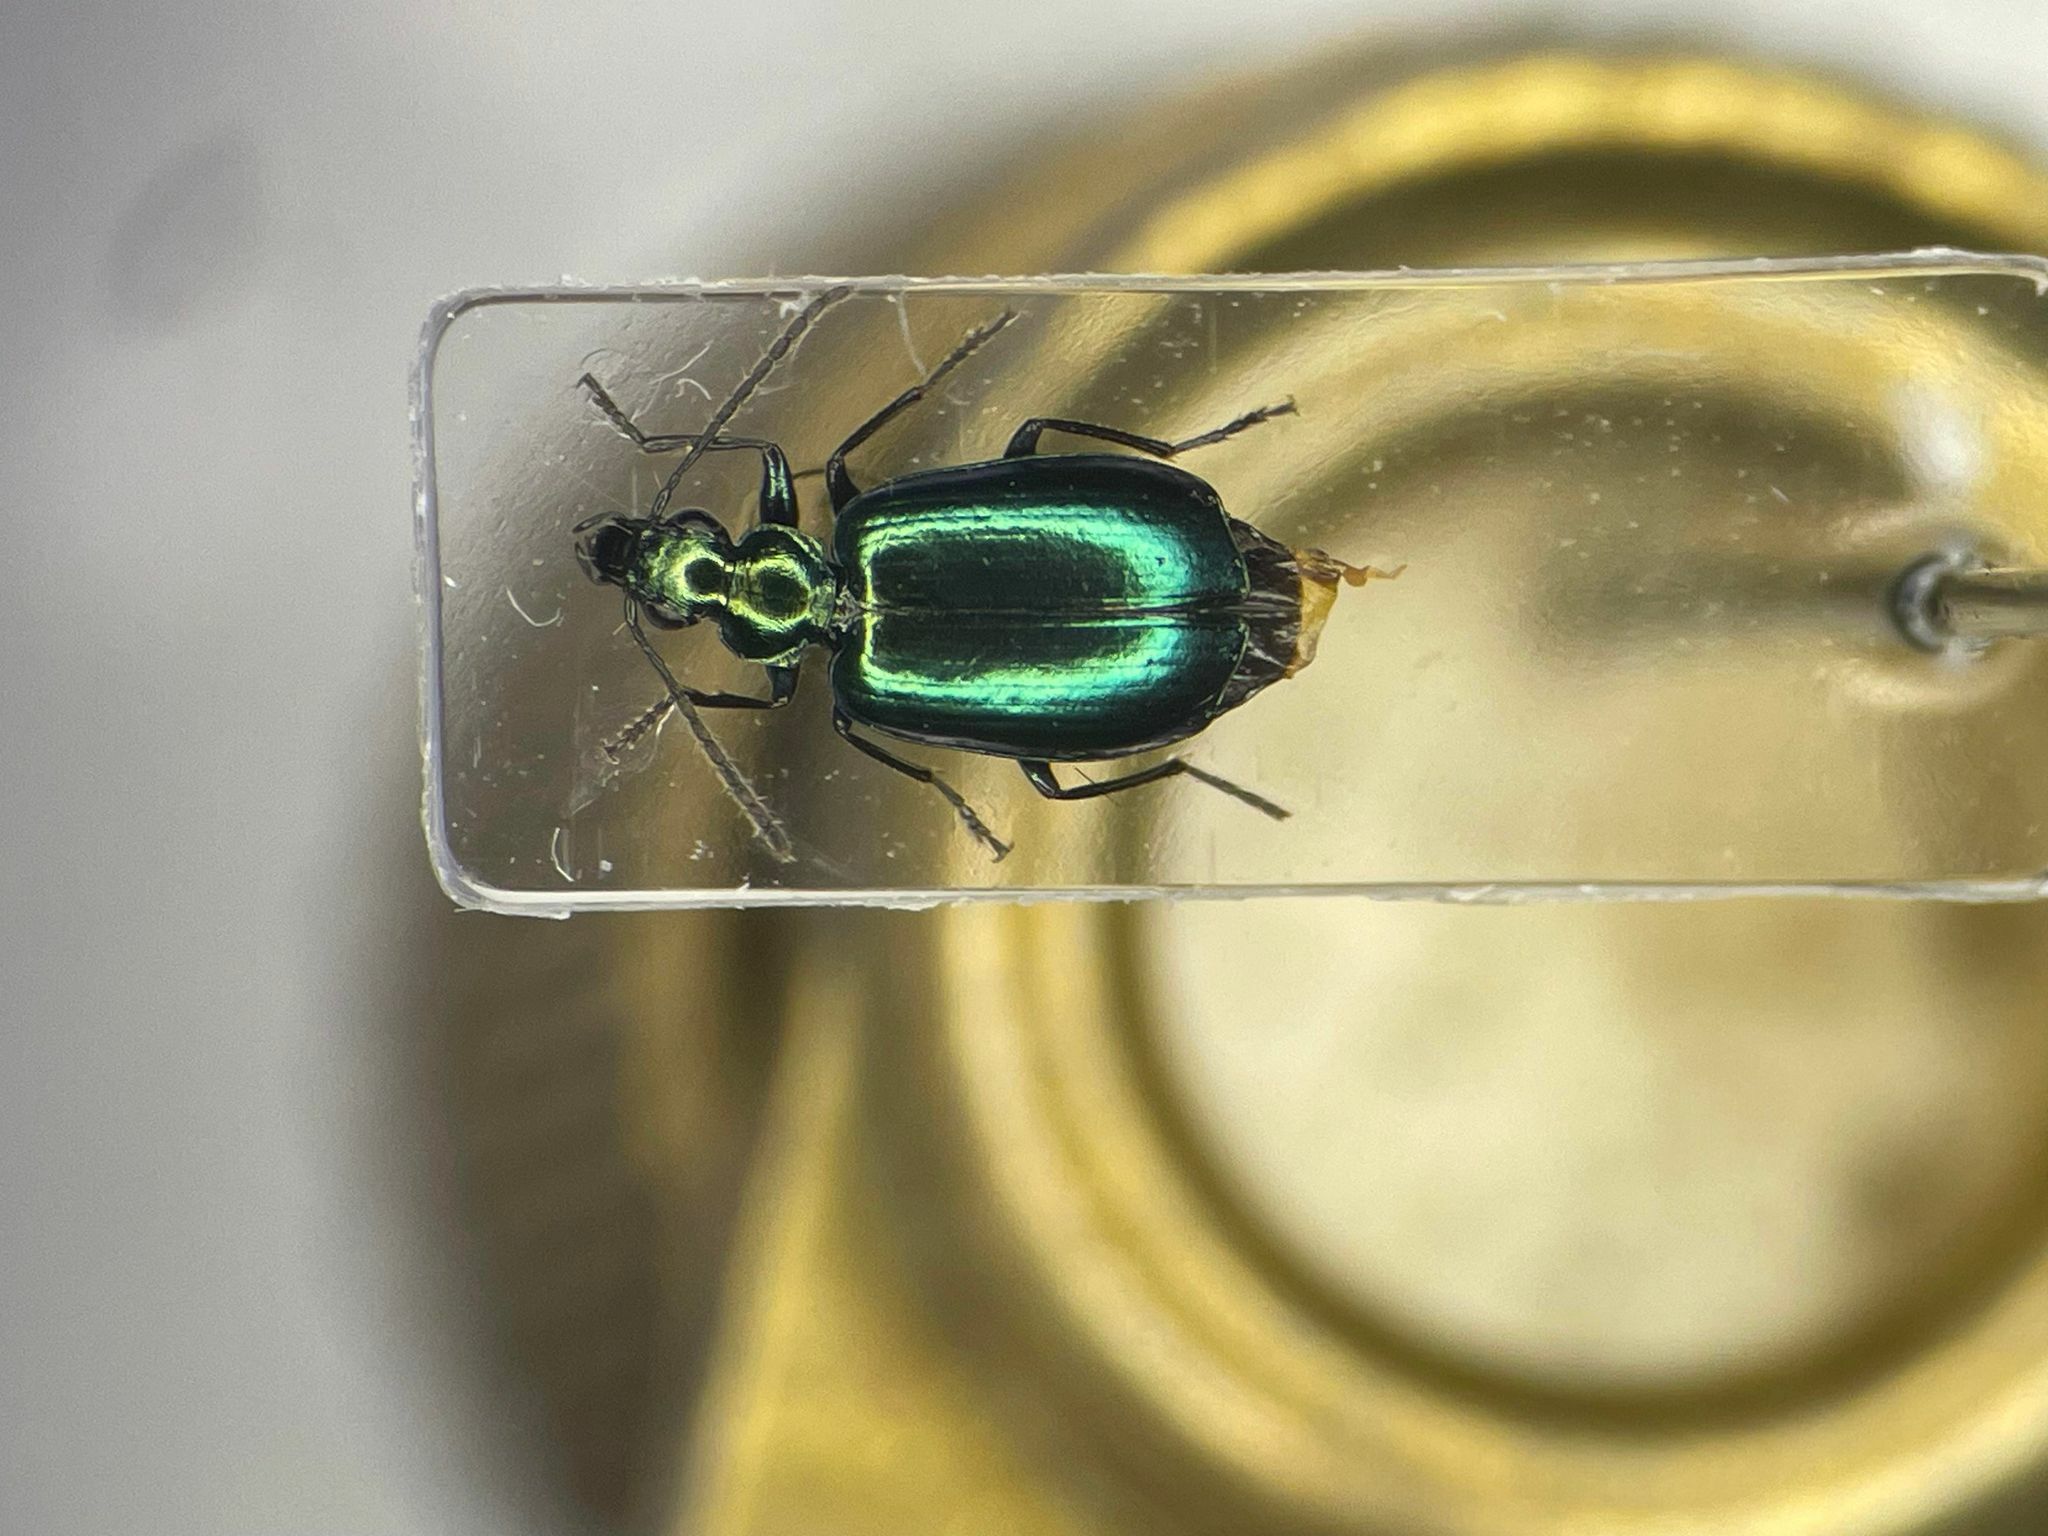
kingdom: Animalia
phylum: Arthropoda
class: Insecta
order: Coleoptera
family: Carabidae
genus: Lebia
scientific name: Lebia viridis
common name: Flower lebia beetle
